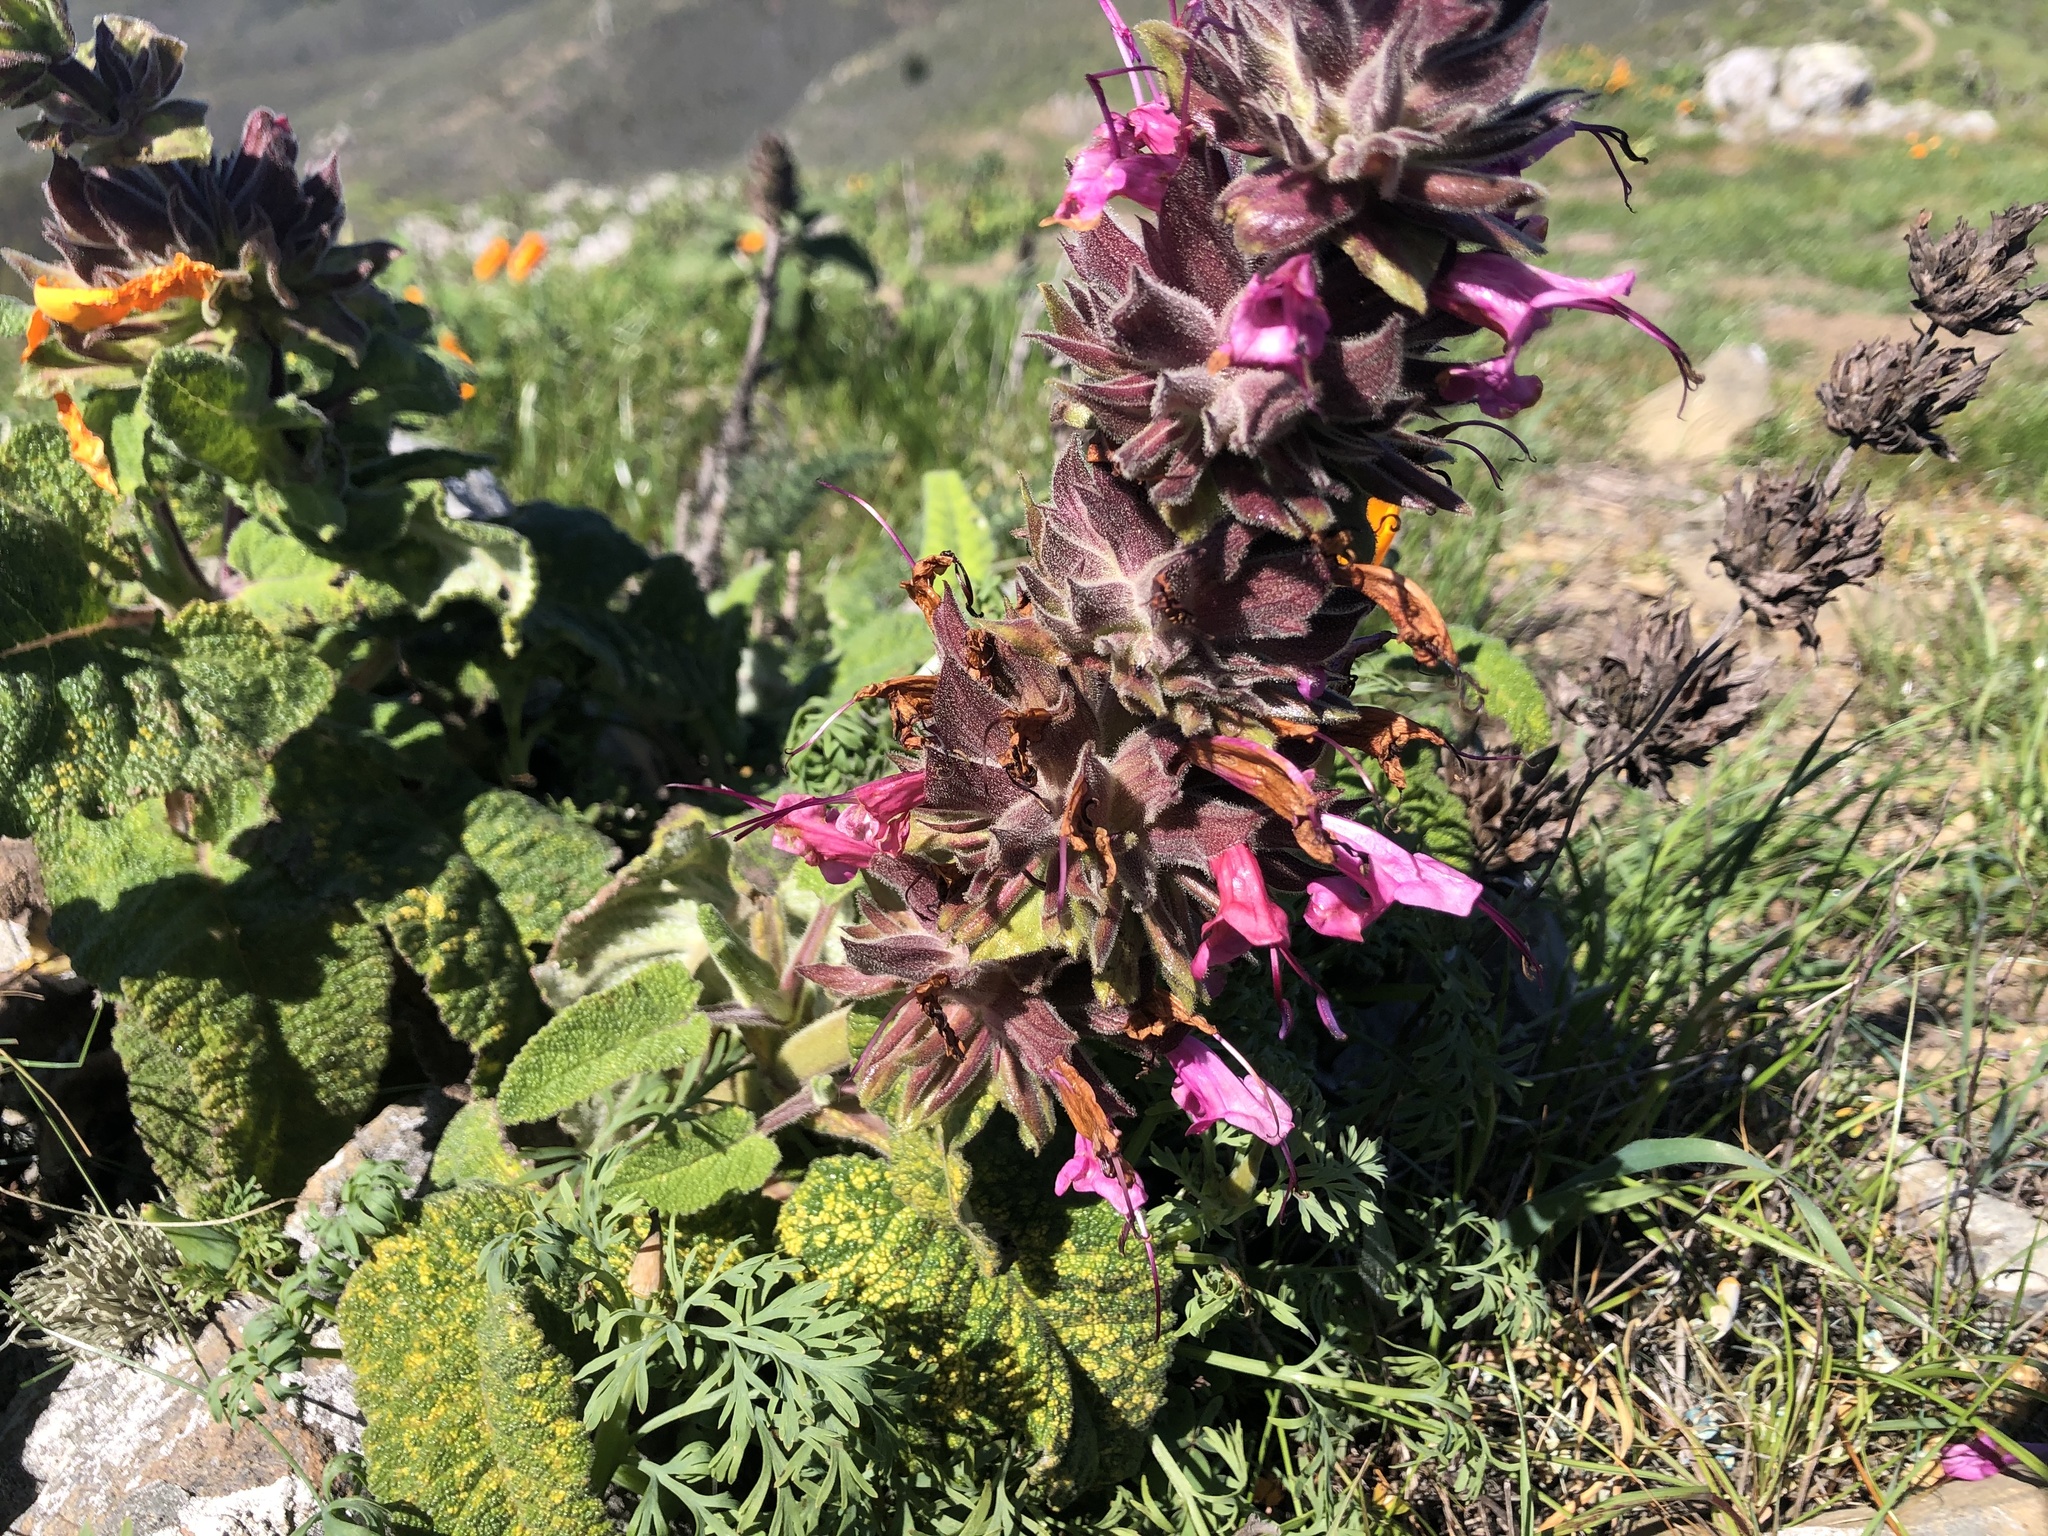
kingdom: Plantae
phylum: Tracheophyta
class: Magnoliopsida
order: Lamiales
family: Lamiaceae
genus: Salvia
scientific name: Salvia spathacea
